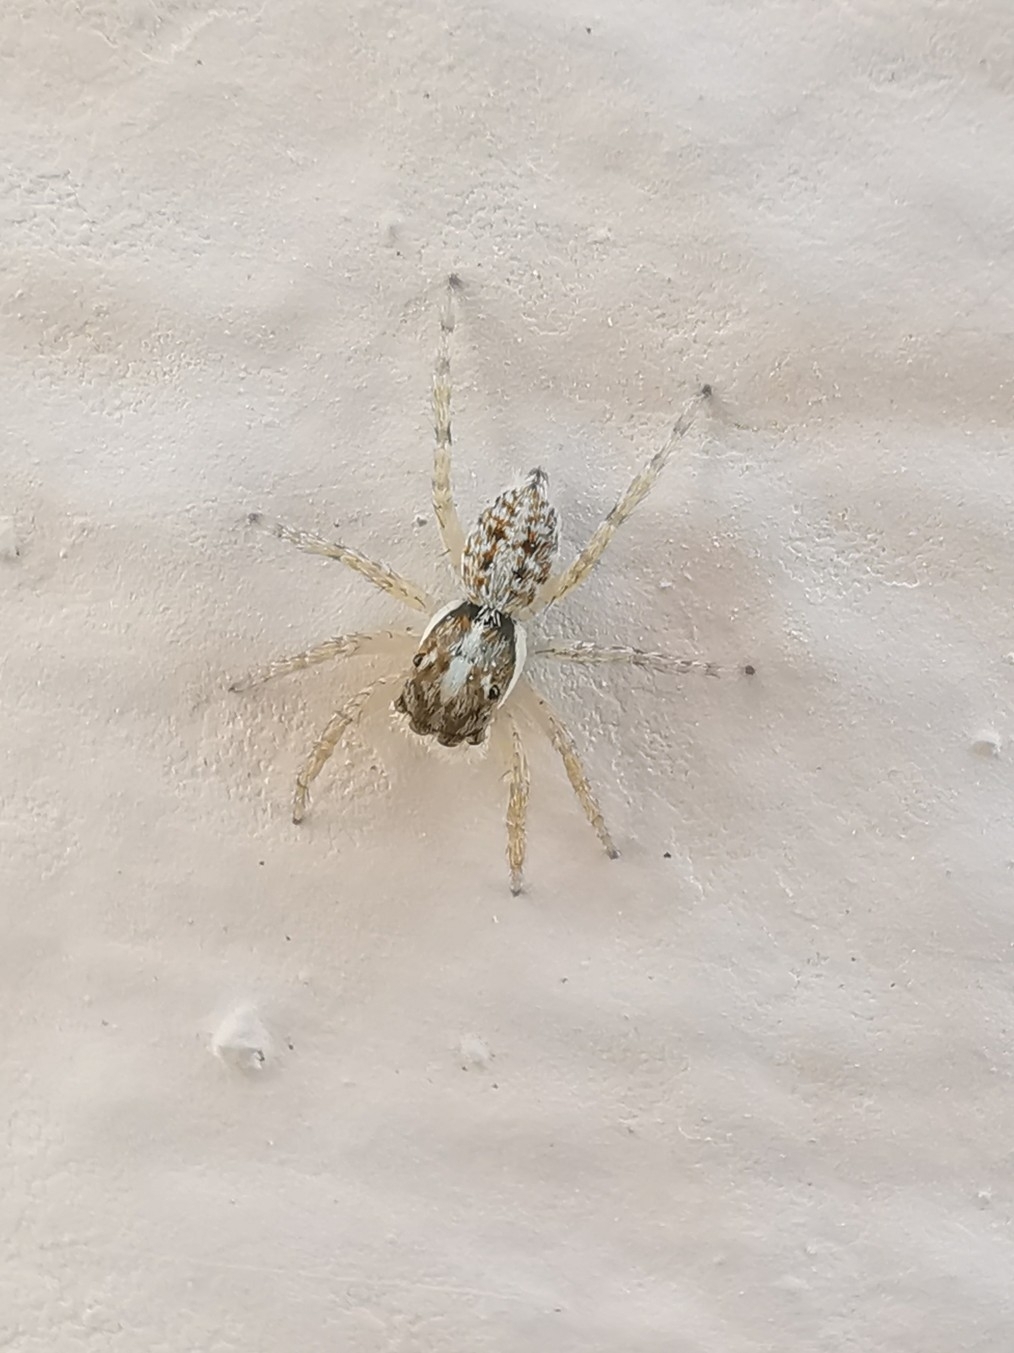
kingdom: Animalia
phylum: Arthropoda
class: Arachnida
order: Araneae
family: Salticidae
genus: Menemerus
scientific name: Menemerus semilimbatus
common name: Jumping spider
